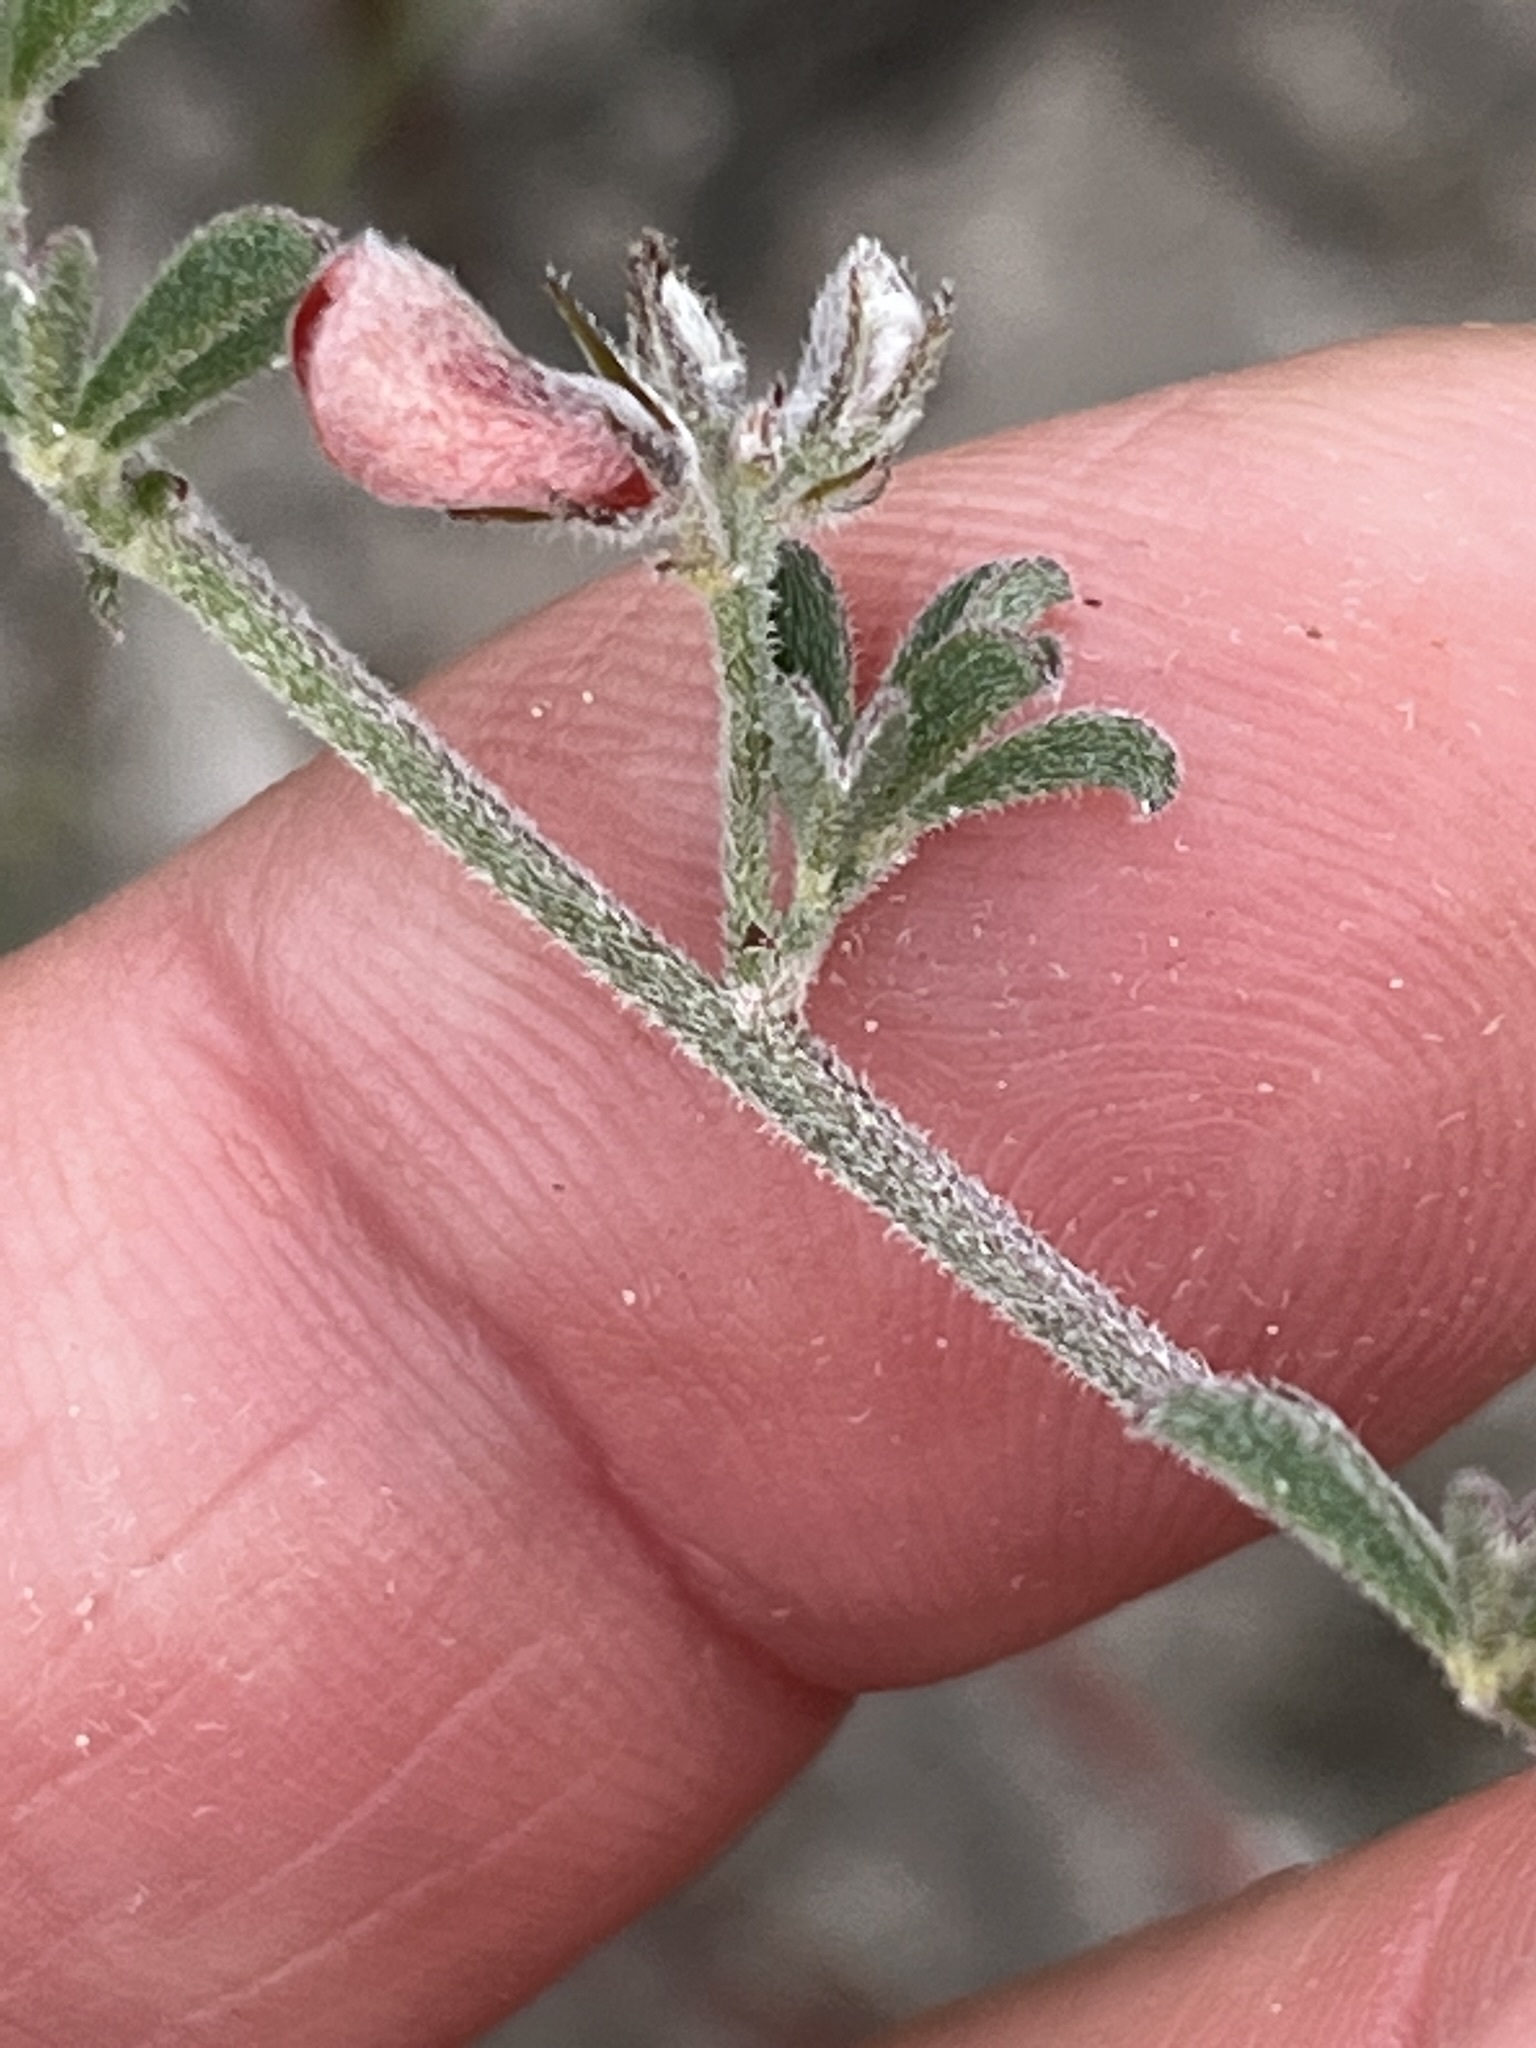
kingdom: Plantae
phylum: Tracheophyta
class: Magnoliopsida
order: Fabales
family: Fabaceae
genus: Indigofera
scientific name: Indigofera priorii
